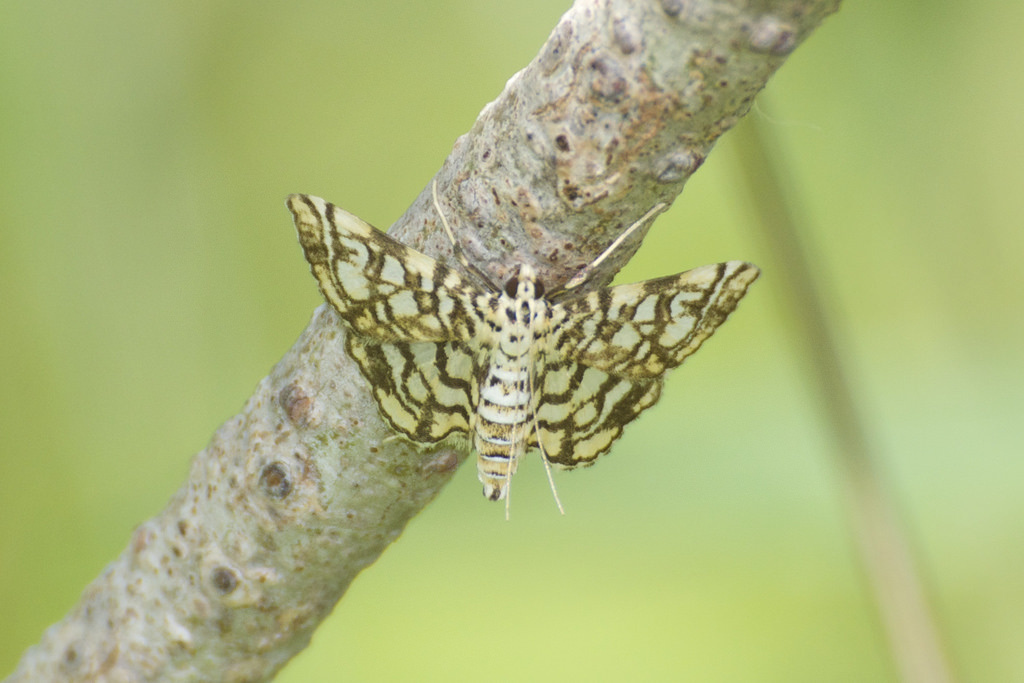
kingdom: Animalia
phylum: Arthropoda
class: Insecta
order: Lepidoptera
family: Crambidae
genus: Lygropia
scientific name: Lygropia rivulalis
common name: Bog lygropia moth
